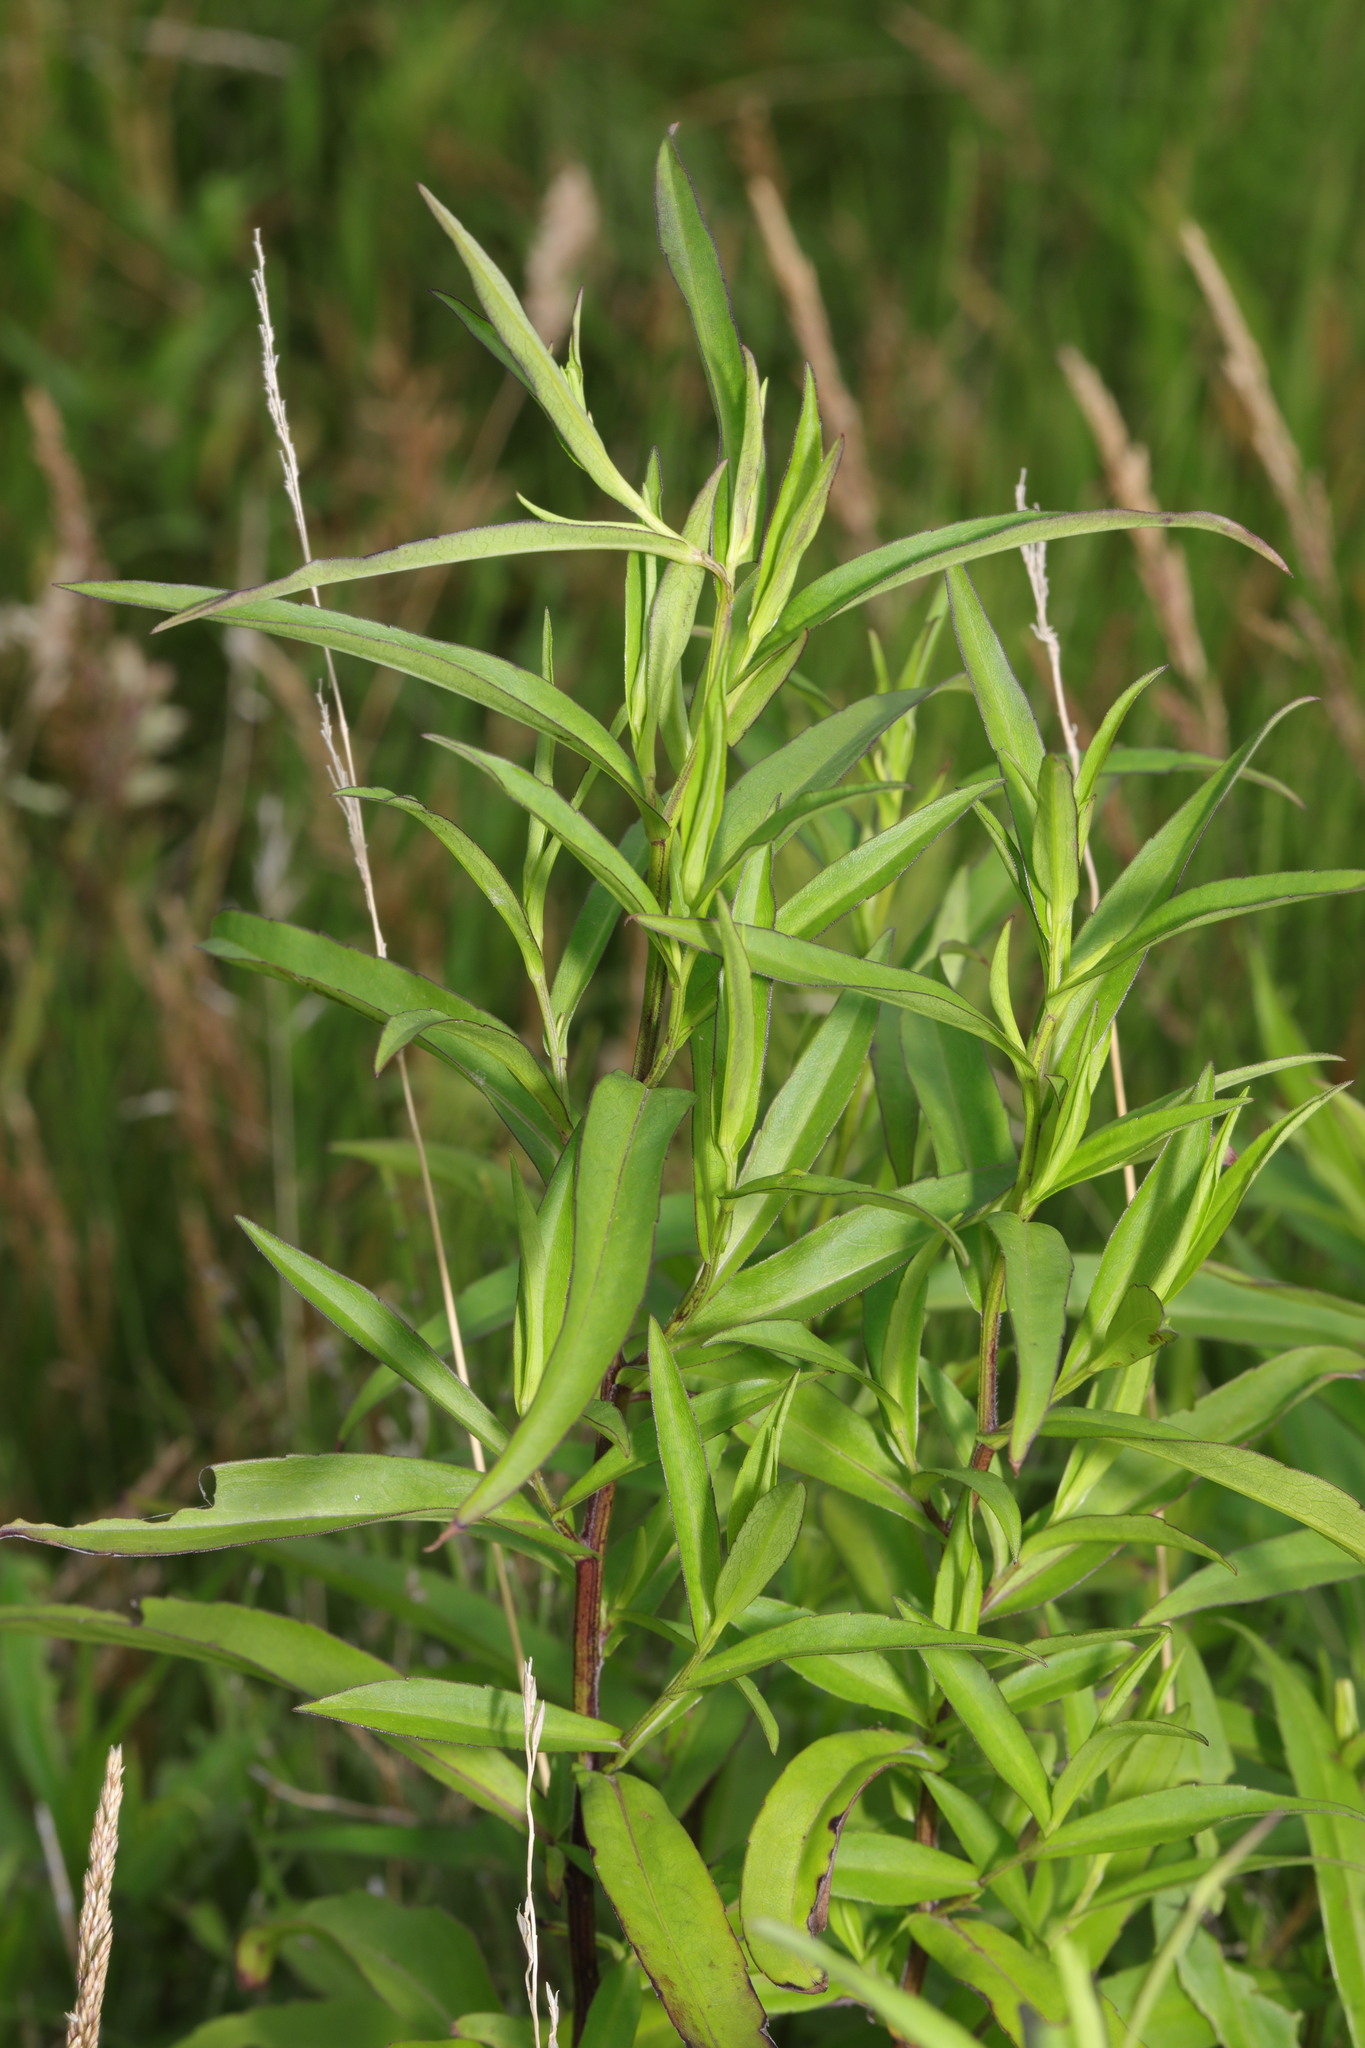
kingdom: Plantae
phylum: Tracheophyta
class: Magnoliopsida
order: Asterales
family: Asteraceae
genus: Symphyotrichum
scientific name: Symphyotrichum
